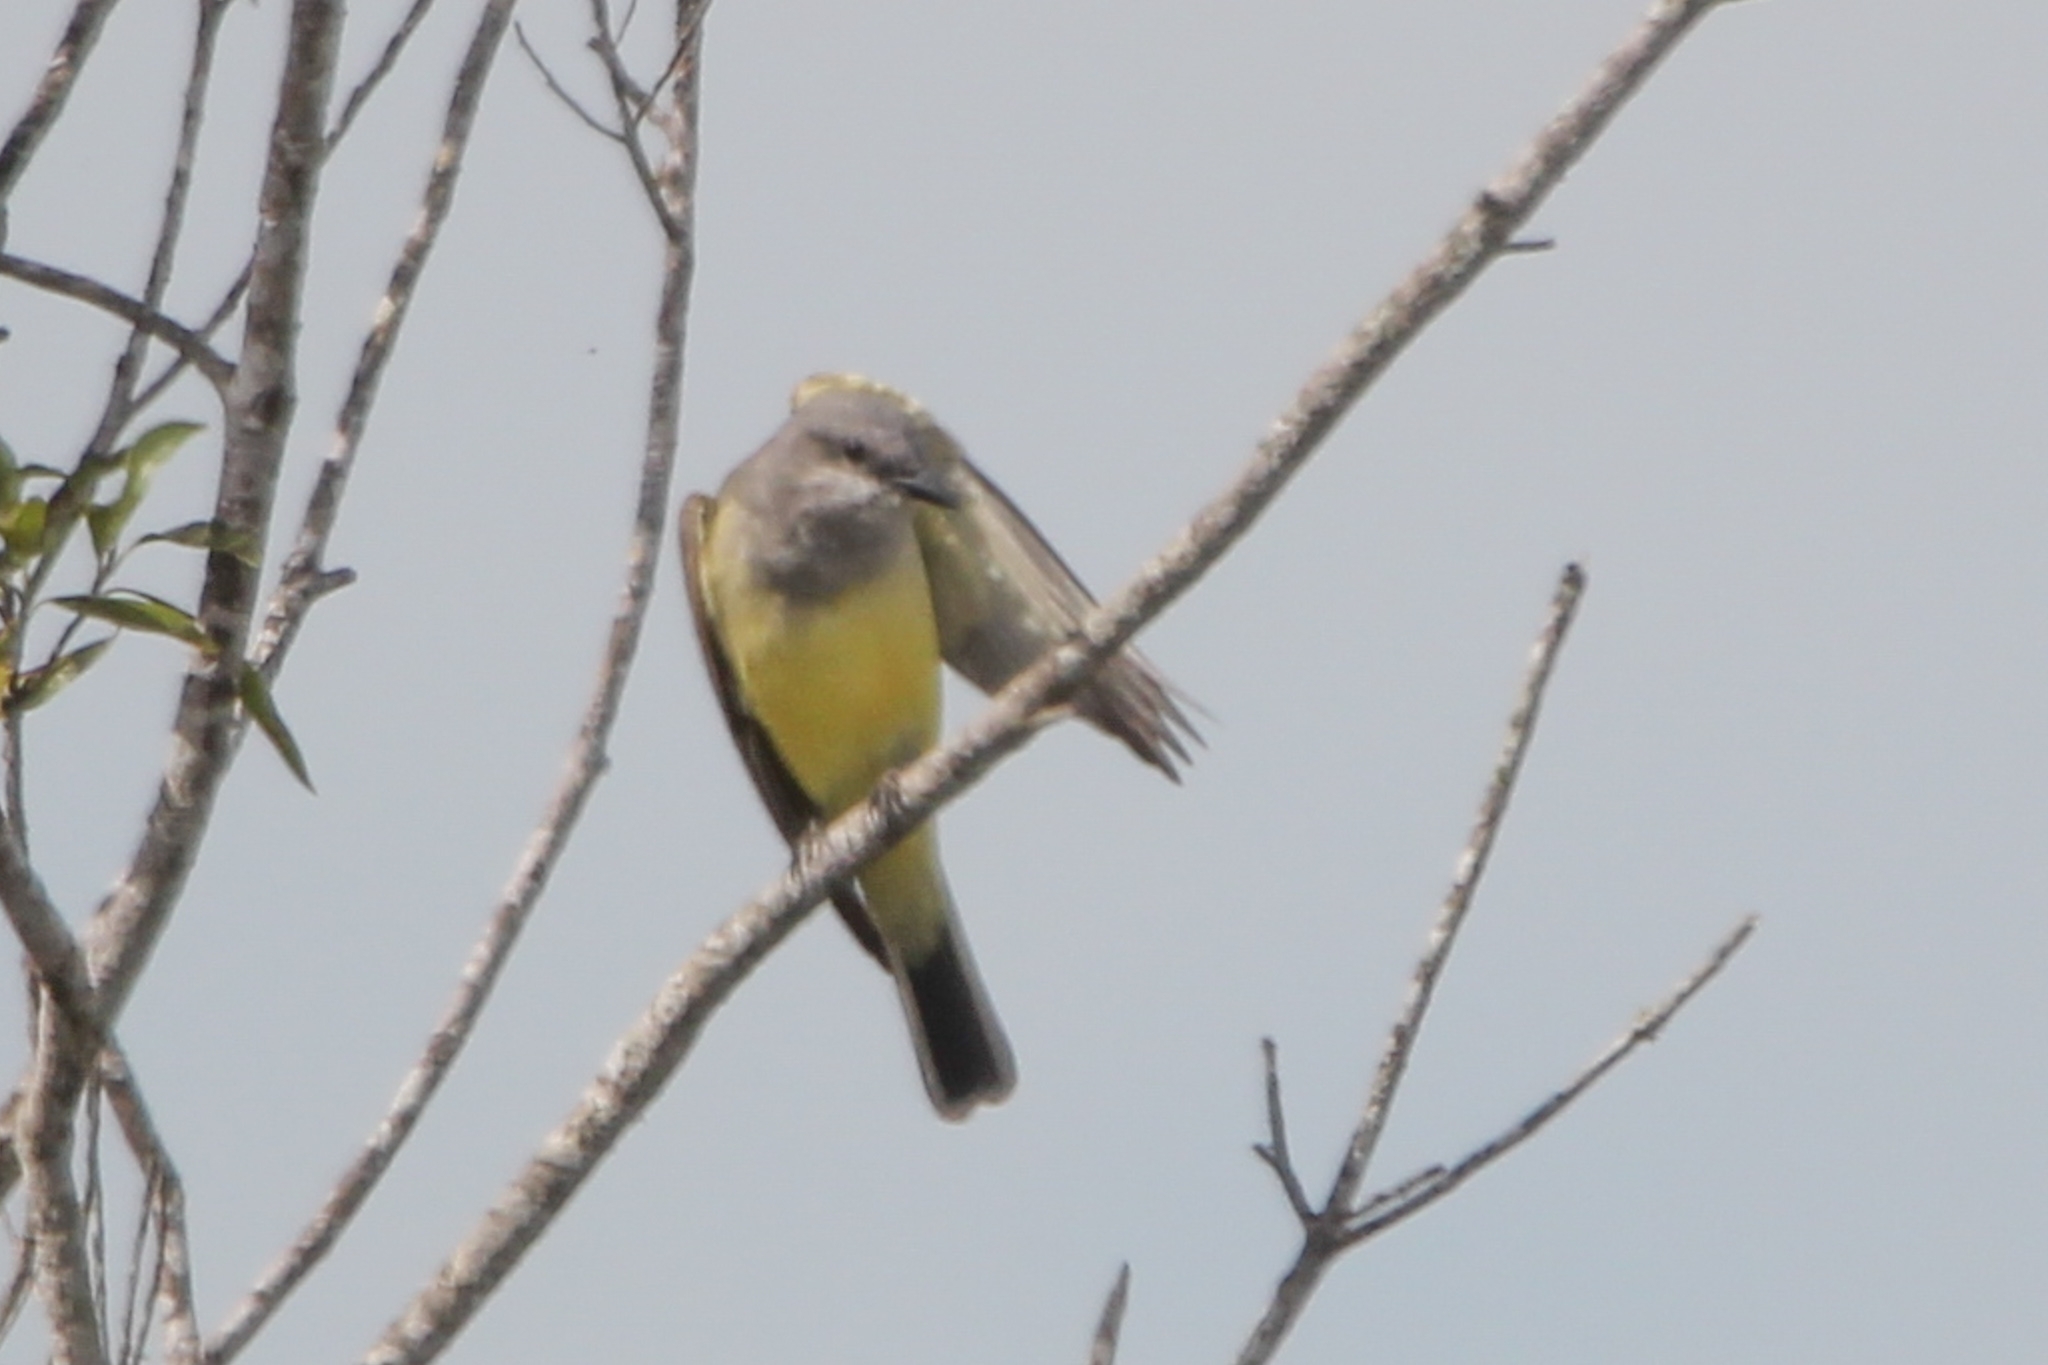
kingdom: Animalia
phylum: Chordata
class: Aves
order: Passeriformes
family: Tyrannidae
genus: Tyrannus
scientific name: Tyrannus verticalis
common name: Western kingbird
